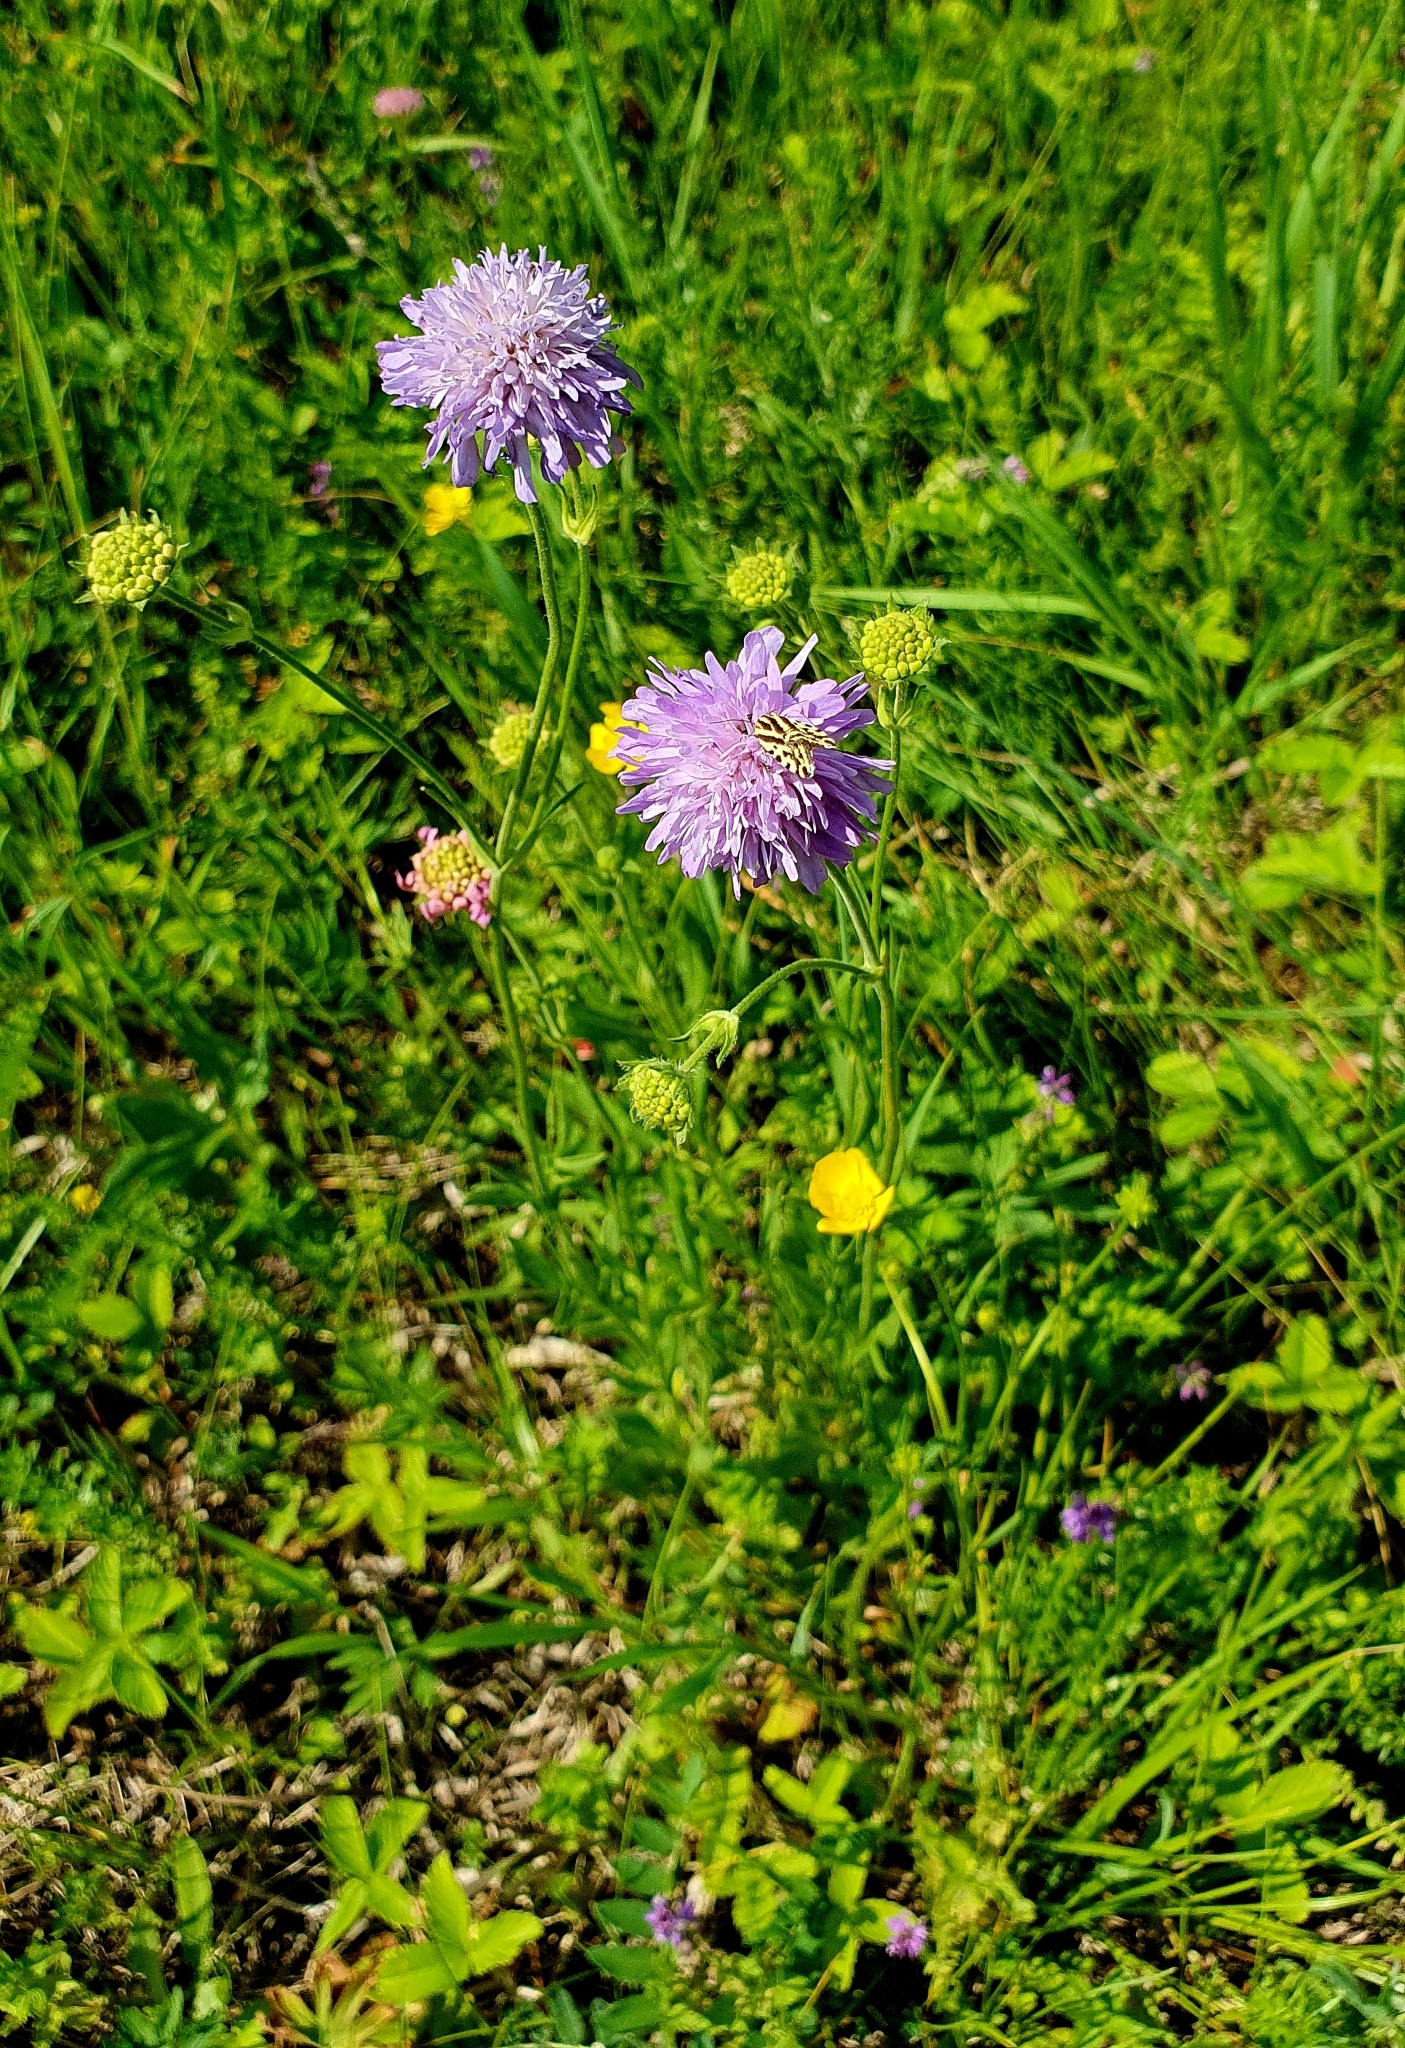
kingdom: Plantae
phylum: Tracheophyta
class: Magnoliopsida
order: Dipsacales
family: Caprifoliaceae
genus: Knautia
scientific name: Knautia arvensis
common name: Field scabiosa
